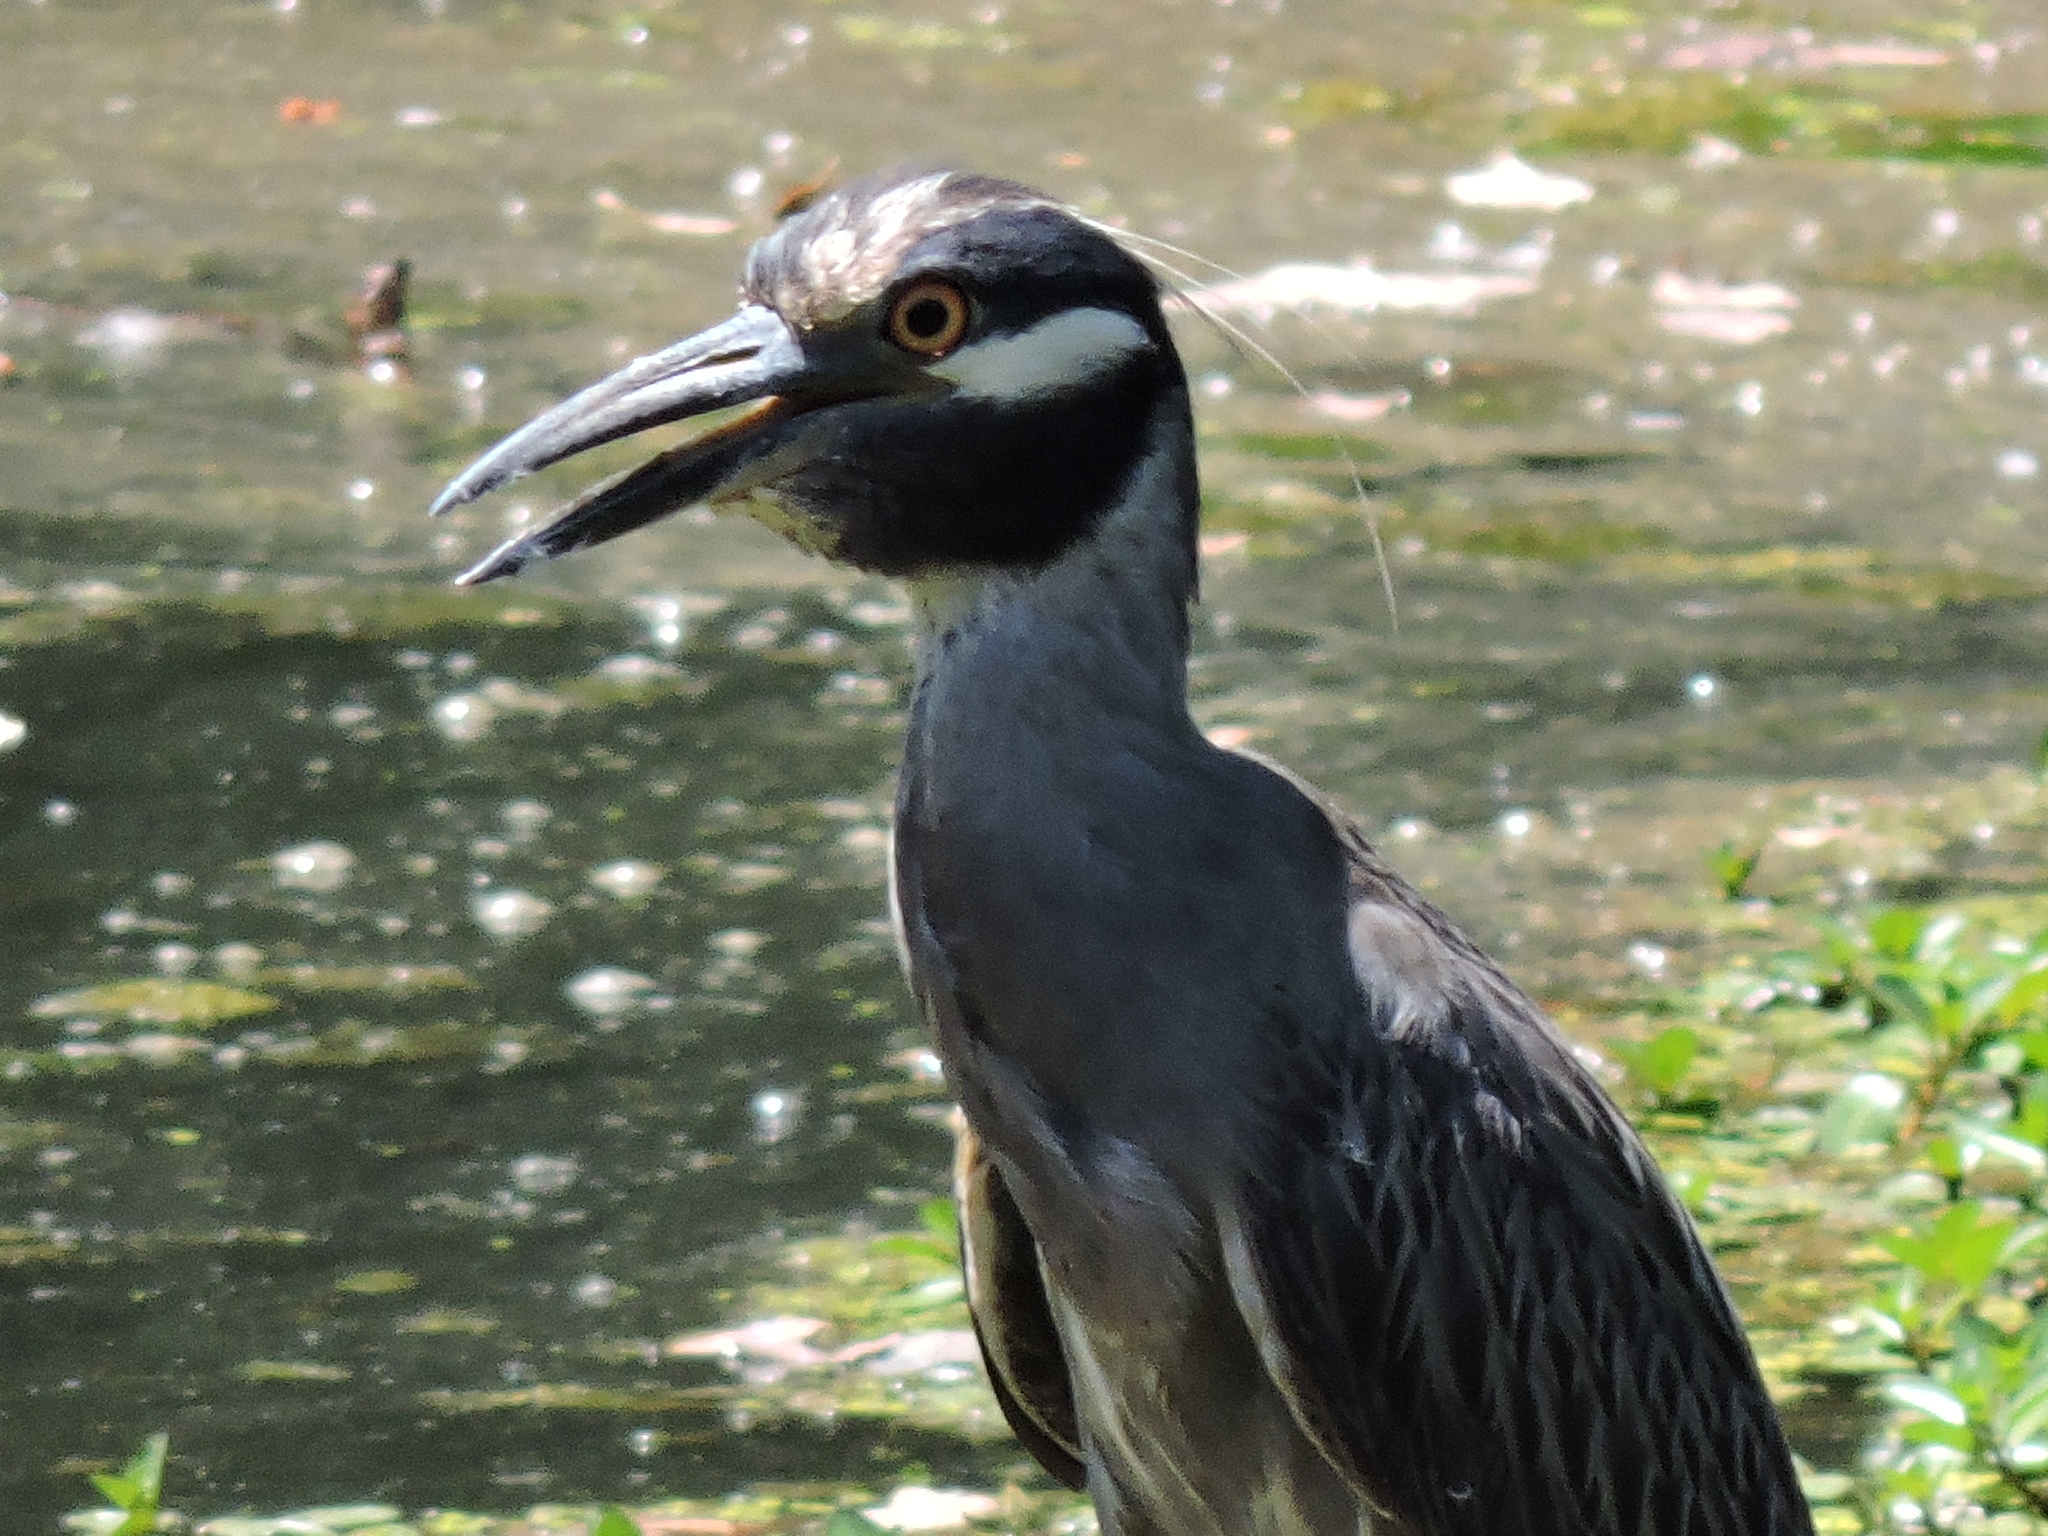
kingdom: Animalia
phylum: Chordata
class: Aves
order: Pelecaniformes
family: Ardeidae
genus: Nyctanassa
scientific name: Nyctanassa violacea
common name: Yellow-crowned night heron
